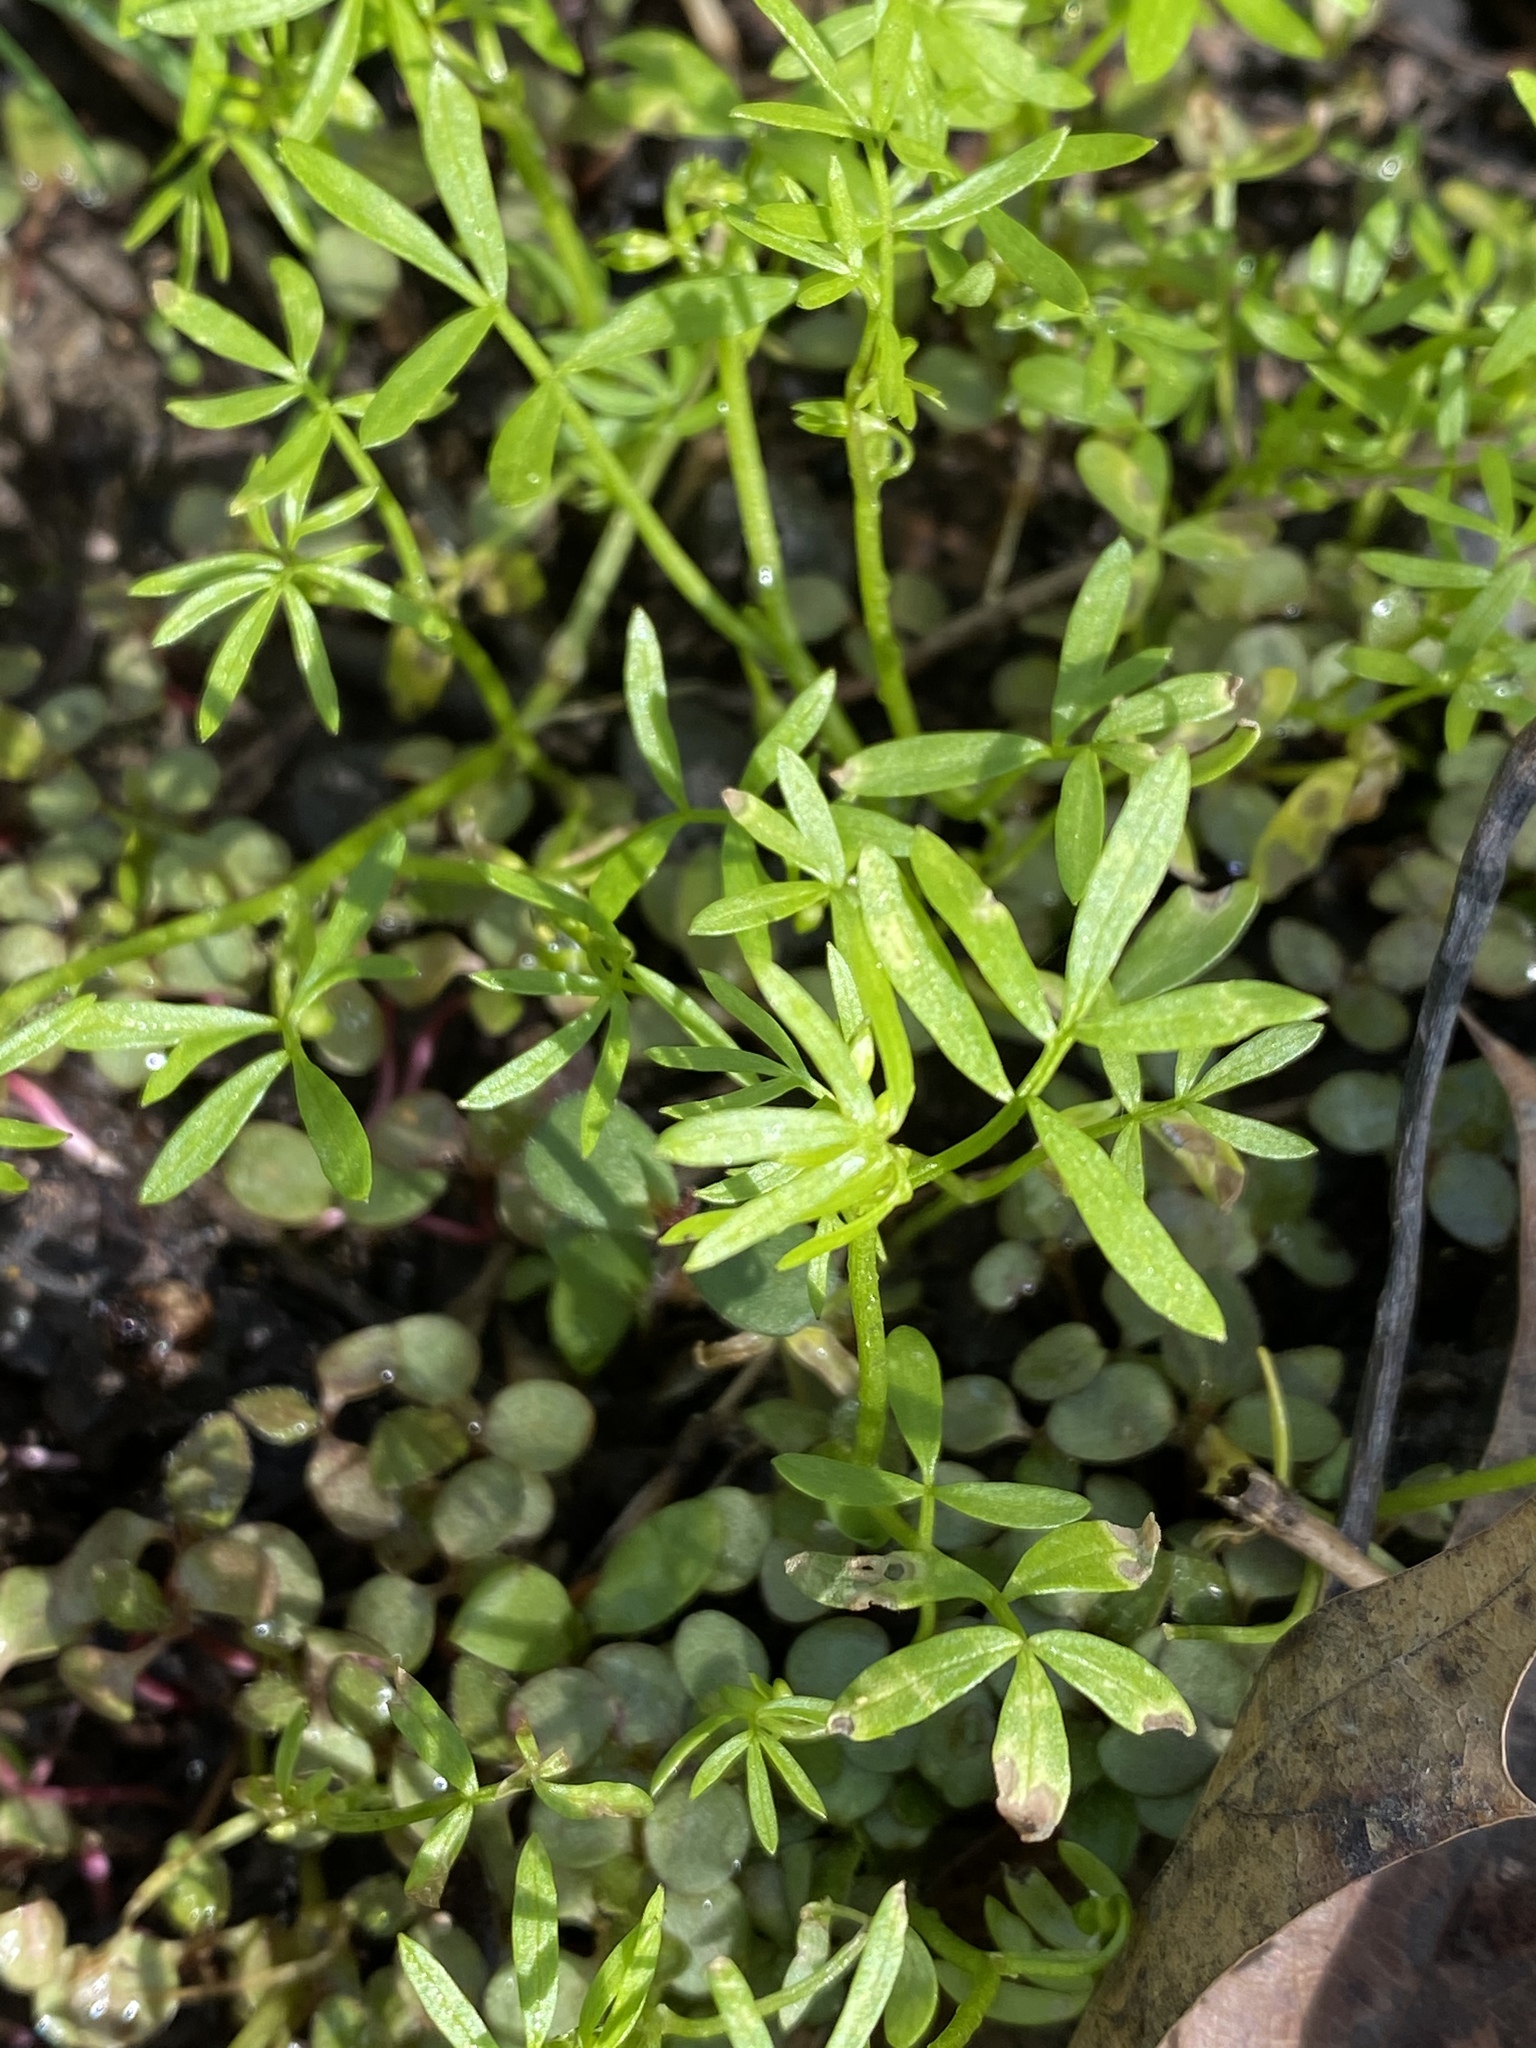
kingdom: Plantae
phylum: Tracheophyta
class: Magnoliopsida
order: Brassicales
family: Limnanthaceae
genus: Floerkea
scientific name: Floerkea proserpinacoides
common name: False mermaid
